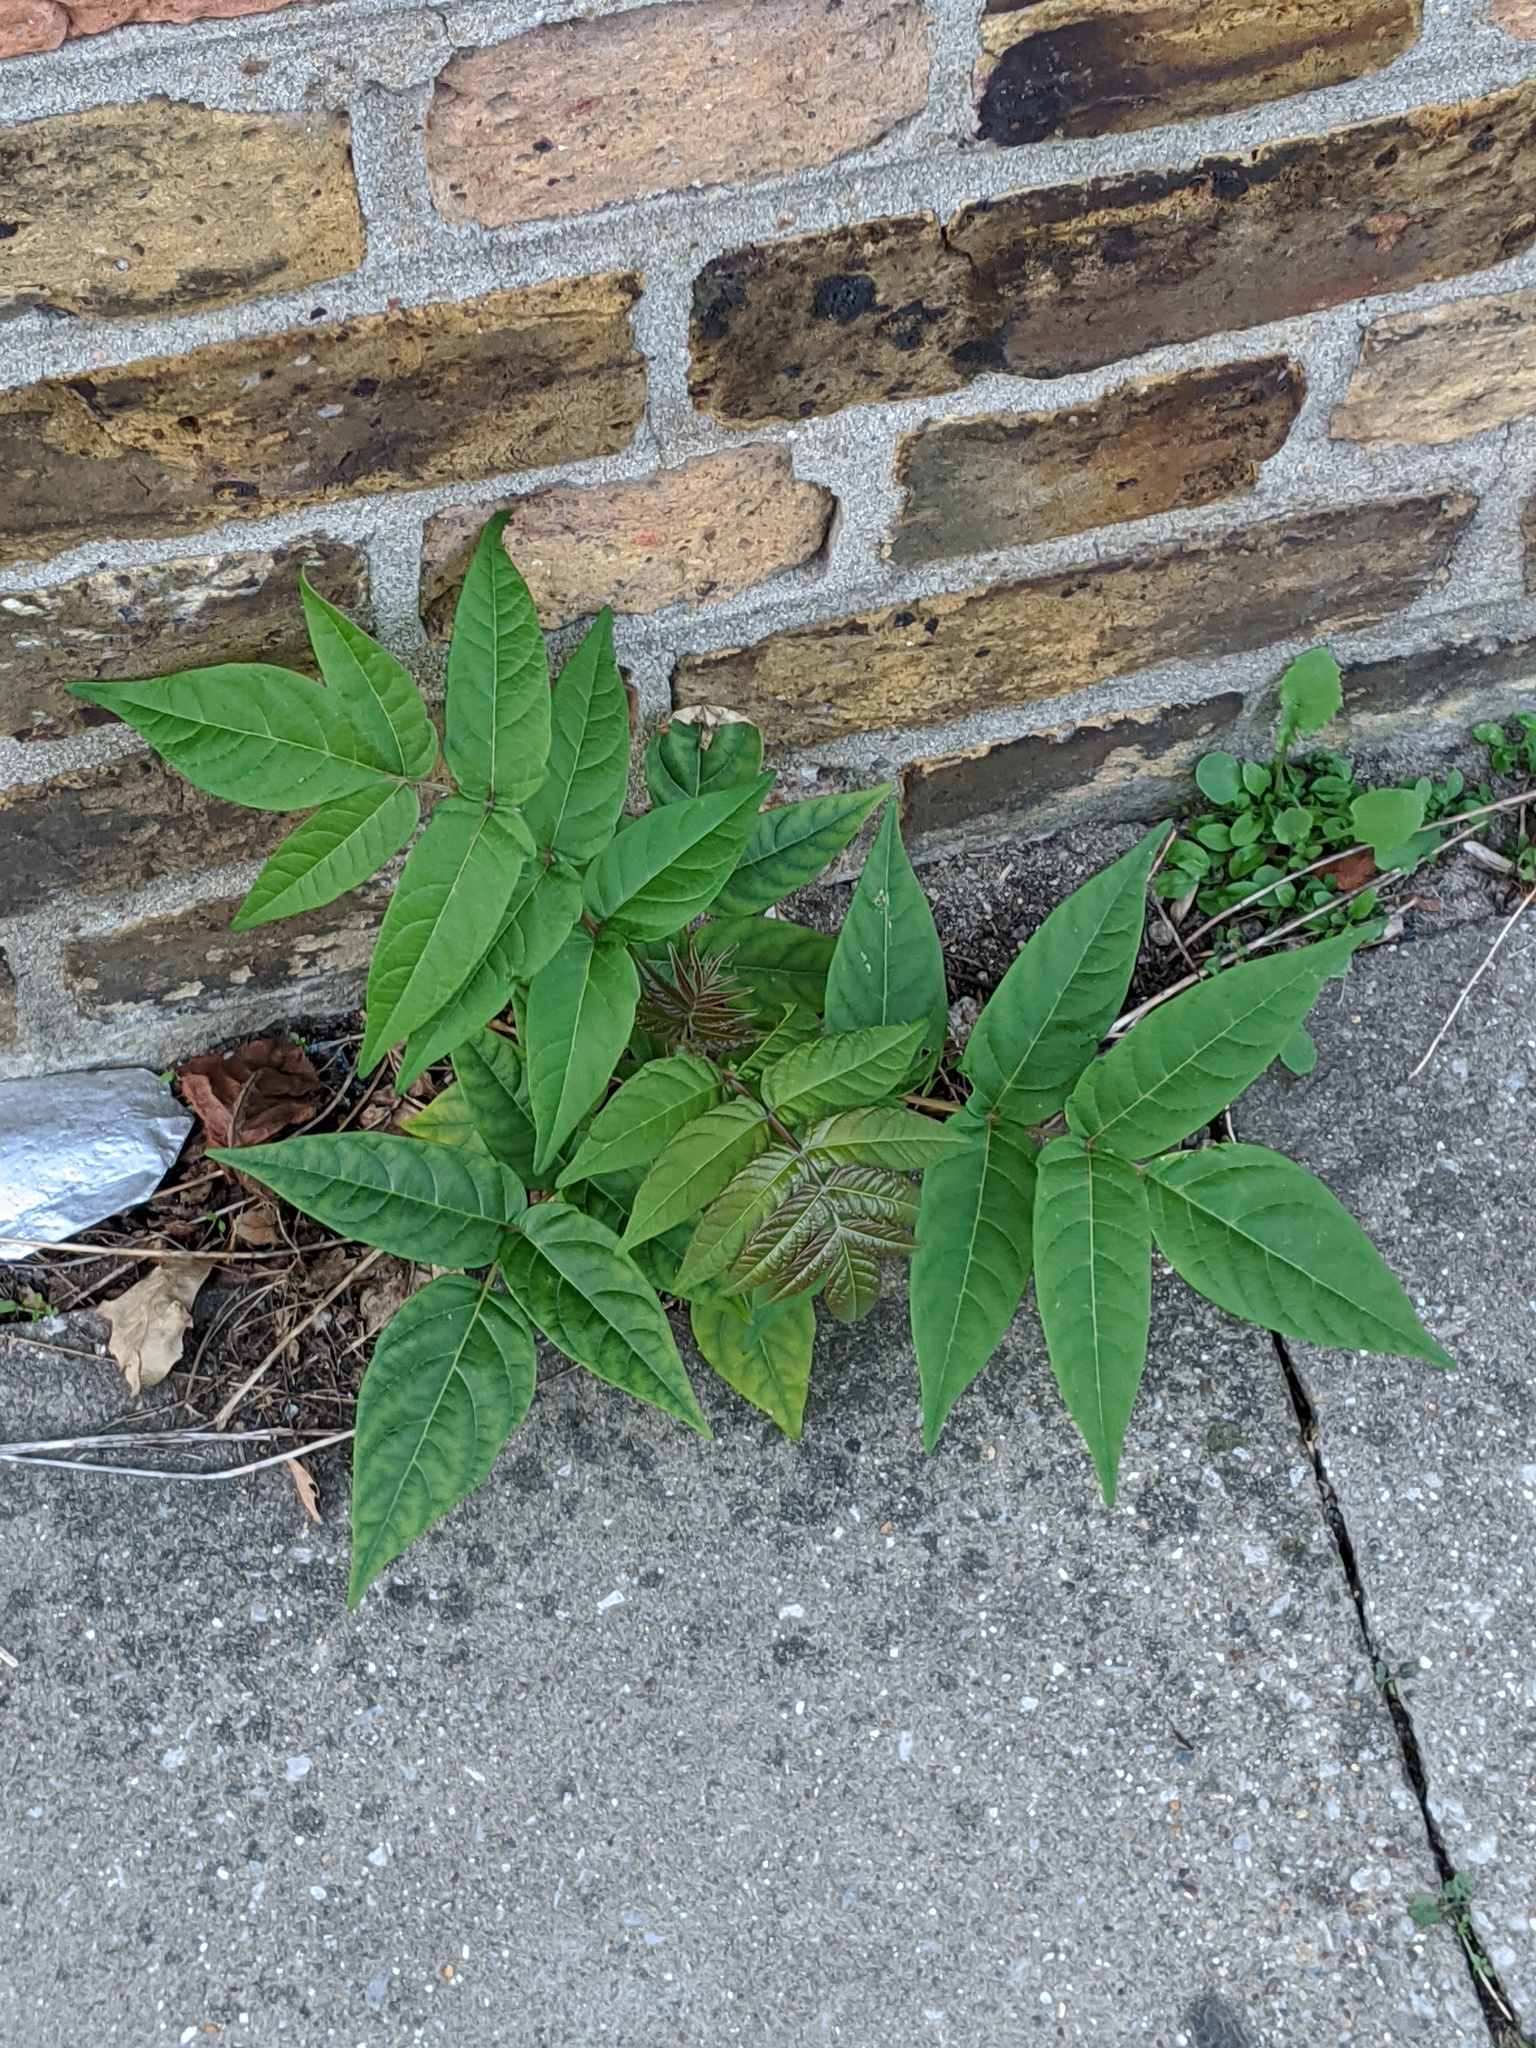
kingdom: Plantae
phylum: Tracheophyta
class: Magnoliopsida
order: Sapindales
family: Simaroubaceae
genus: Ailanthus
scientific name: Ailanthus altissima
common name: Tree-of-heaven
